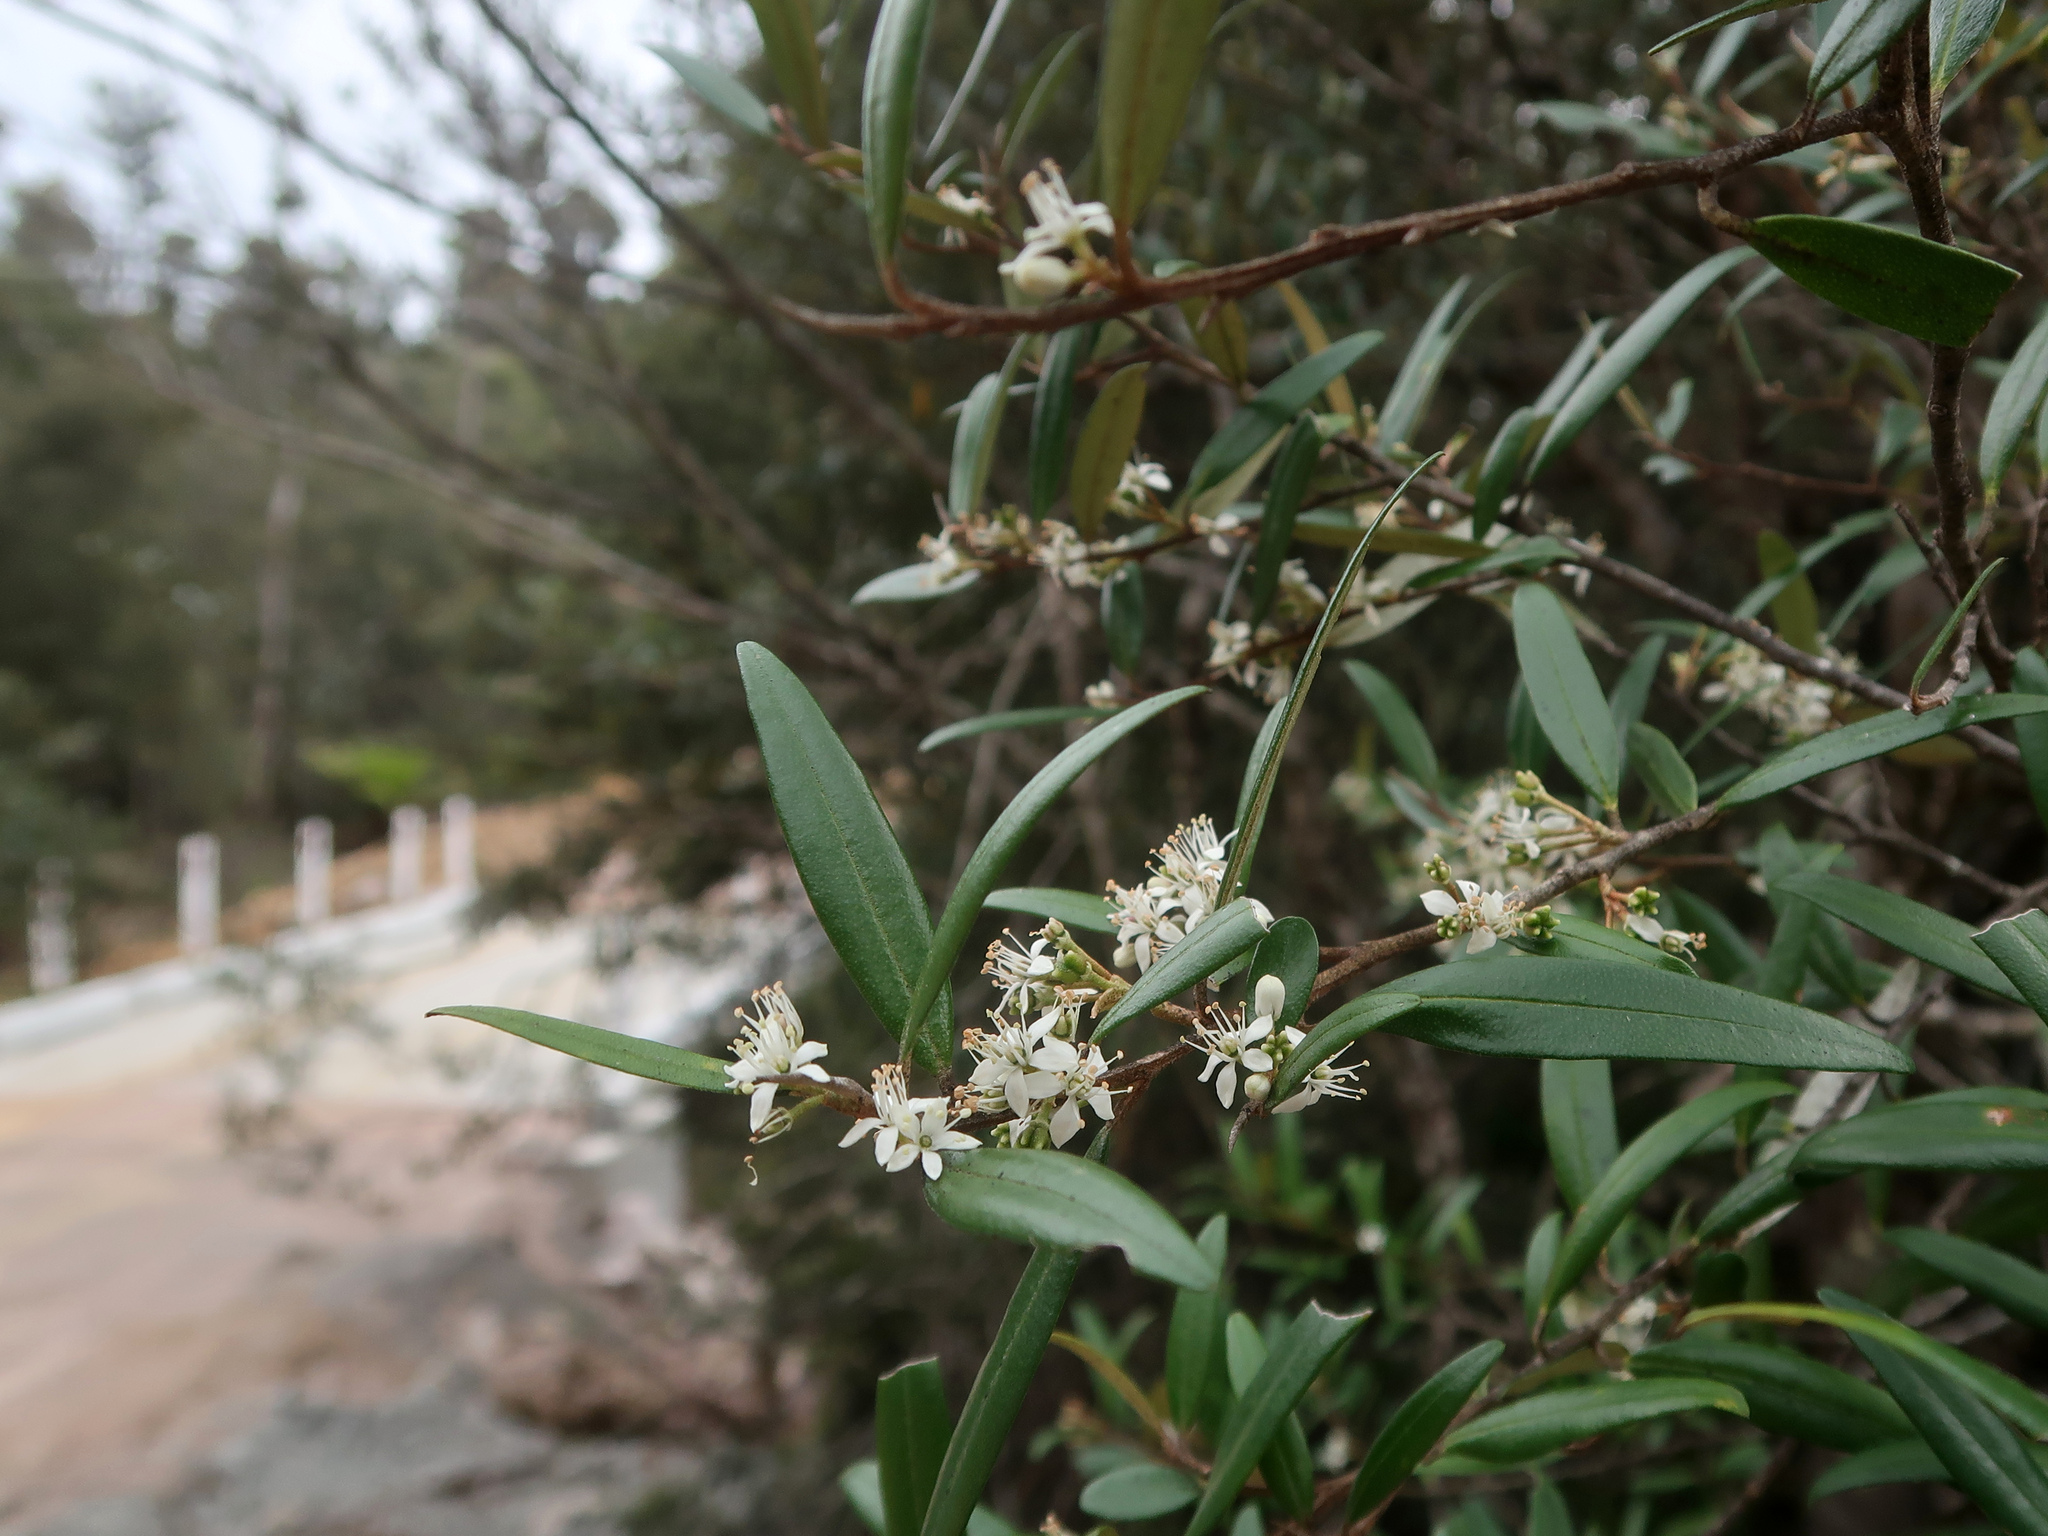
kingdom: Plantae
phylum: Tracheophyta
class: Magnoliopsida
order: Sapindales
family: Rutaceae
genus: Nematolepis
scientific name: Nematolepis squamea
